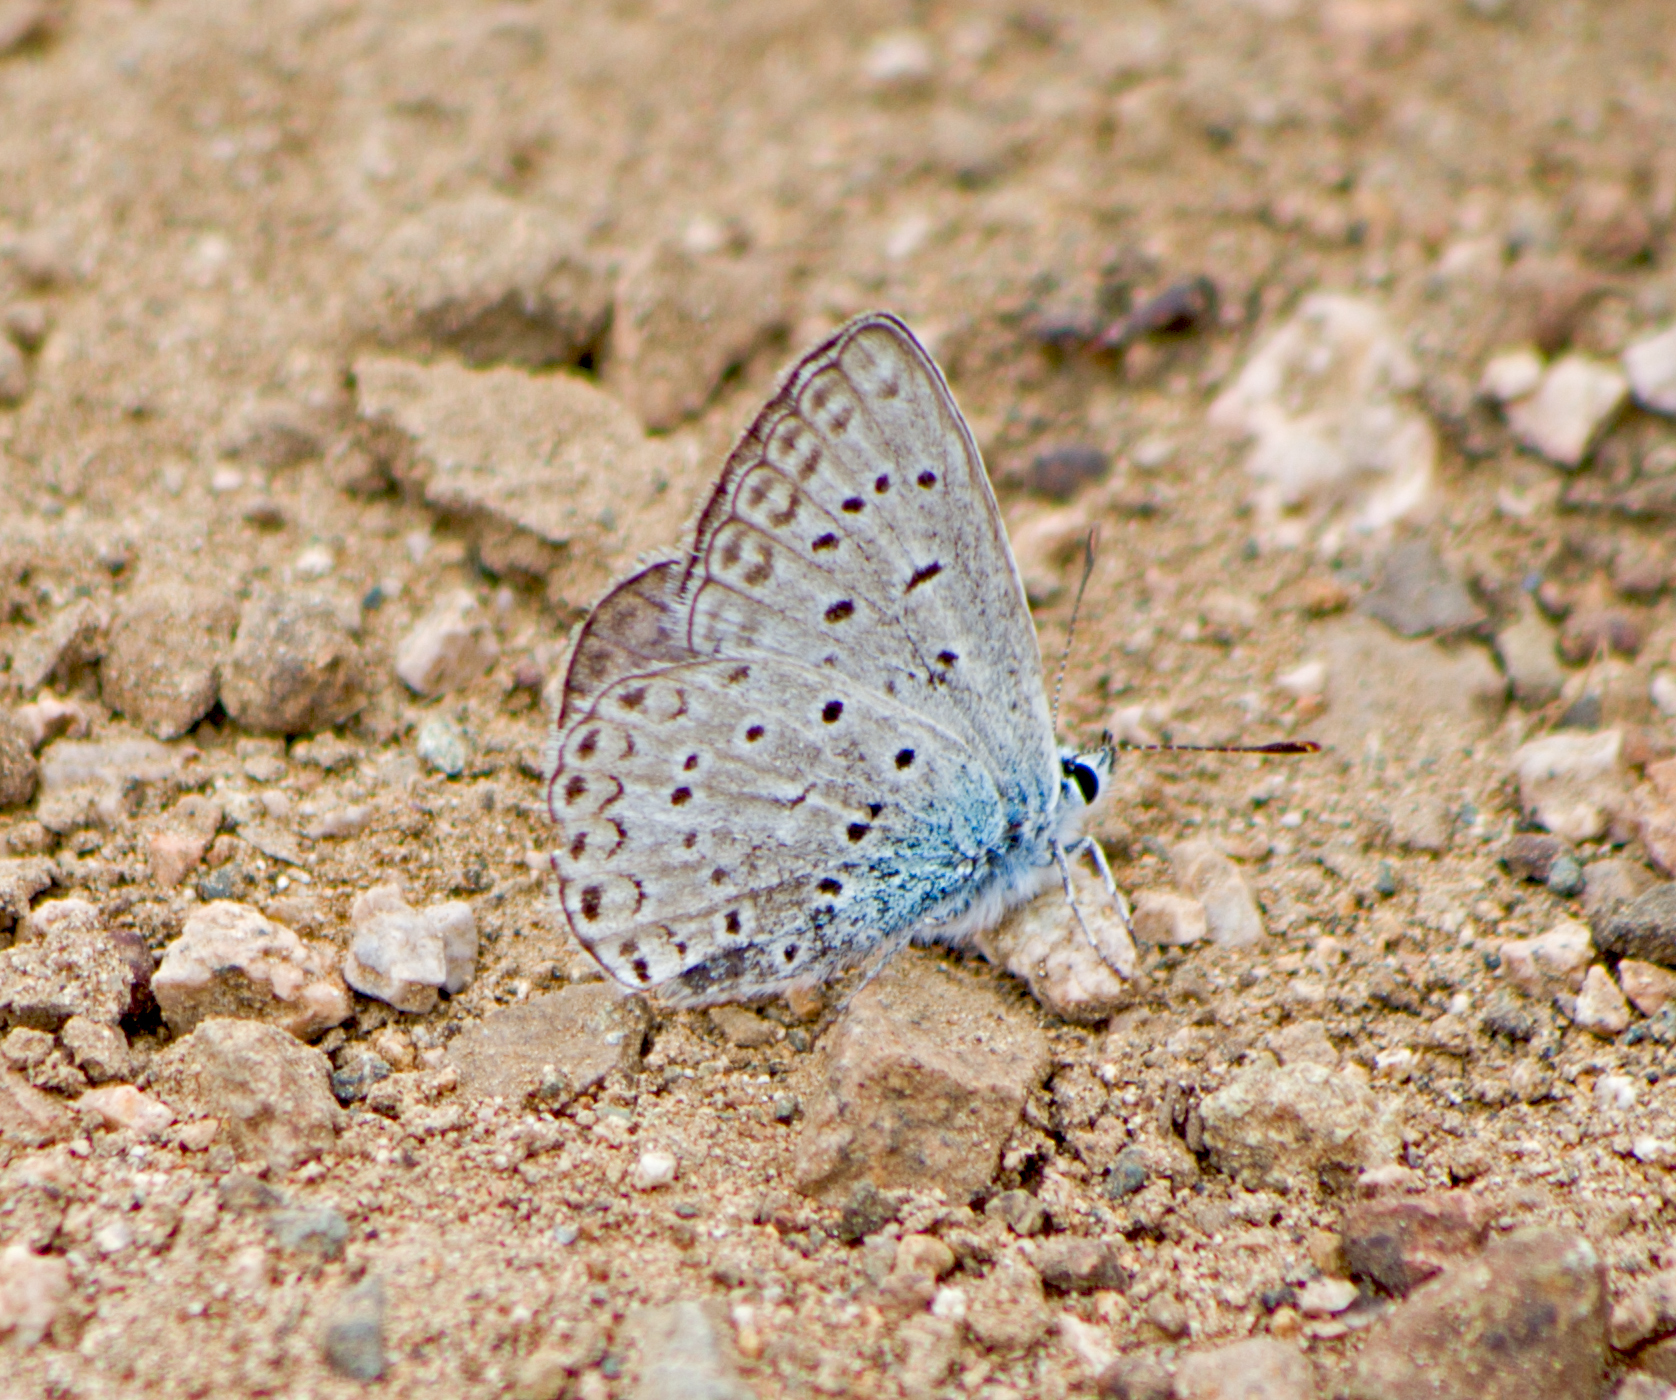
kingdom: Animalia
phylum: Arthropoda
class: Insecta
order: Lepidoptera
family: Lycaenidae
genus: Polyommatus
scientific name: Polyommatus icarus
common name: Common blue
